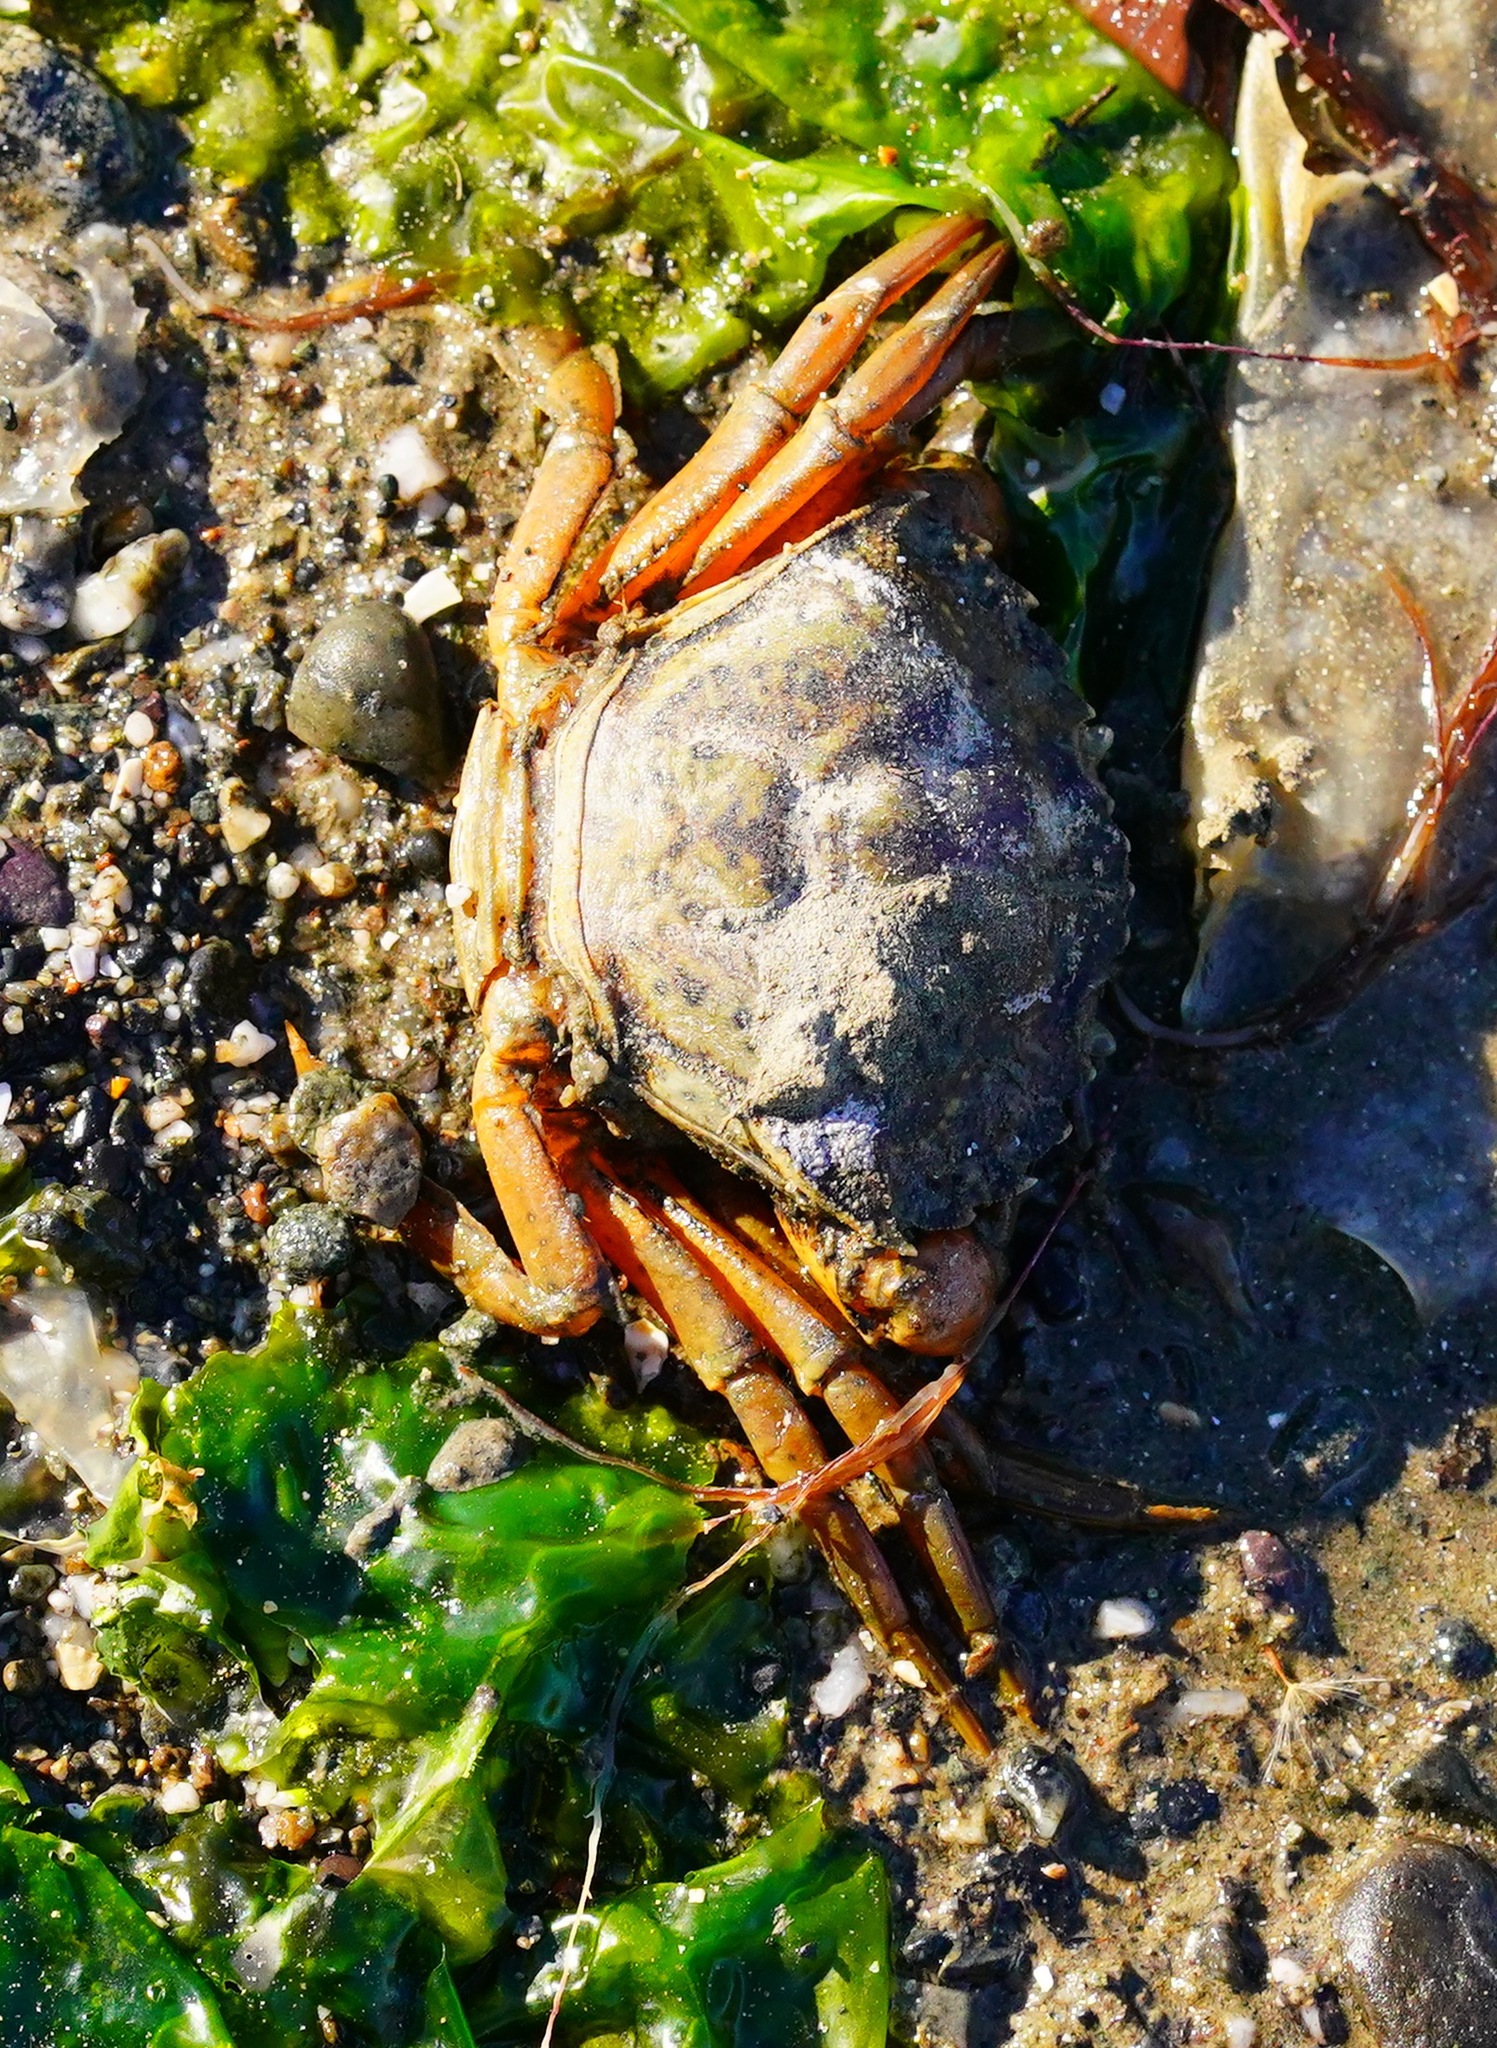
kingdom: Animalia
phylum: Arthropoda
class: Malacostraca
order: Decapoda
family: Carcinidae
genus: Carcinus
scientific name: Carcinus maenas
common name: European green crab
